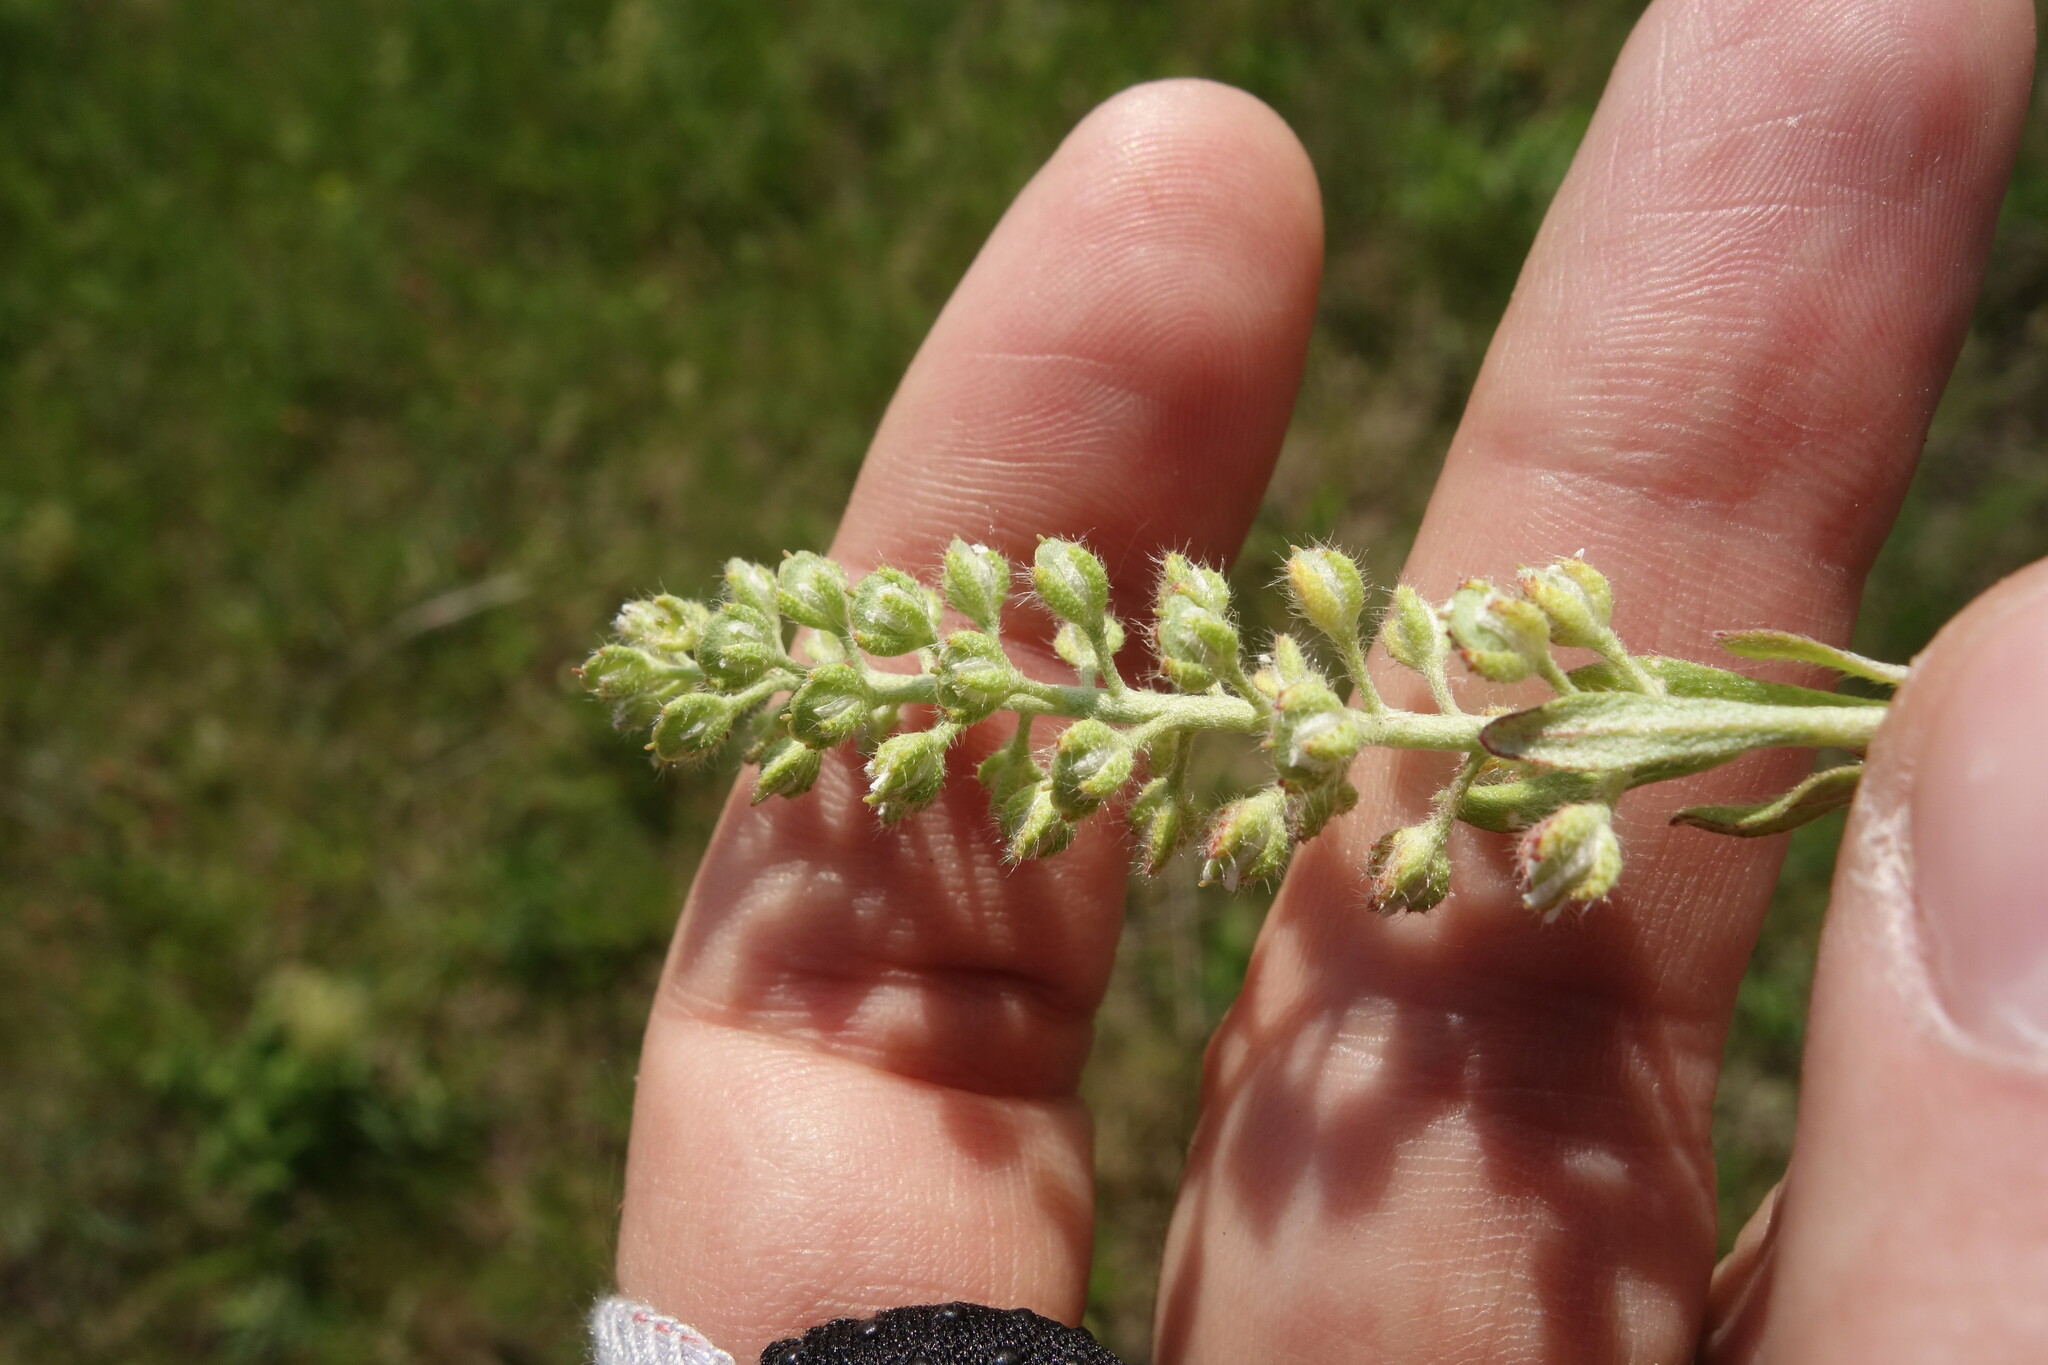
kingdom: Plantae
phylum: Tracheophyta
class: Magnoliopsida
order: Brassicales
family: Brassicaceae
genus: Alyssum
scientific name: Alyssum alyssoides
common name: Small alison
